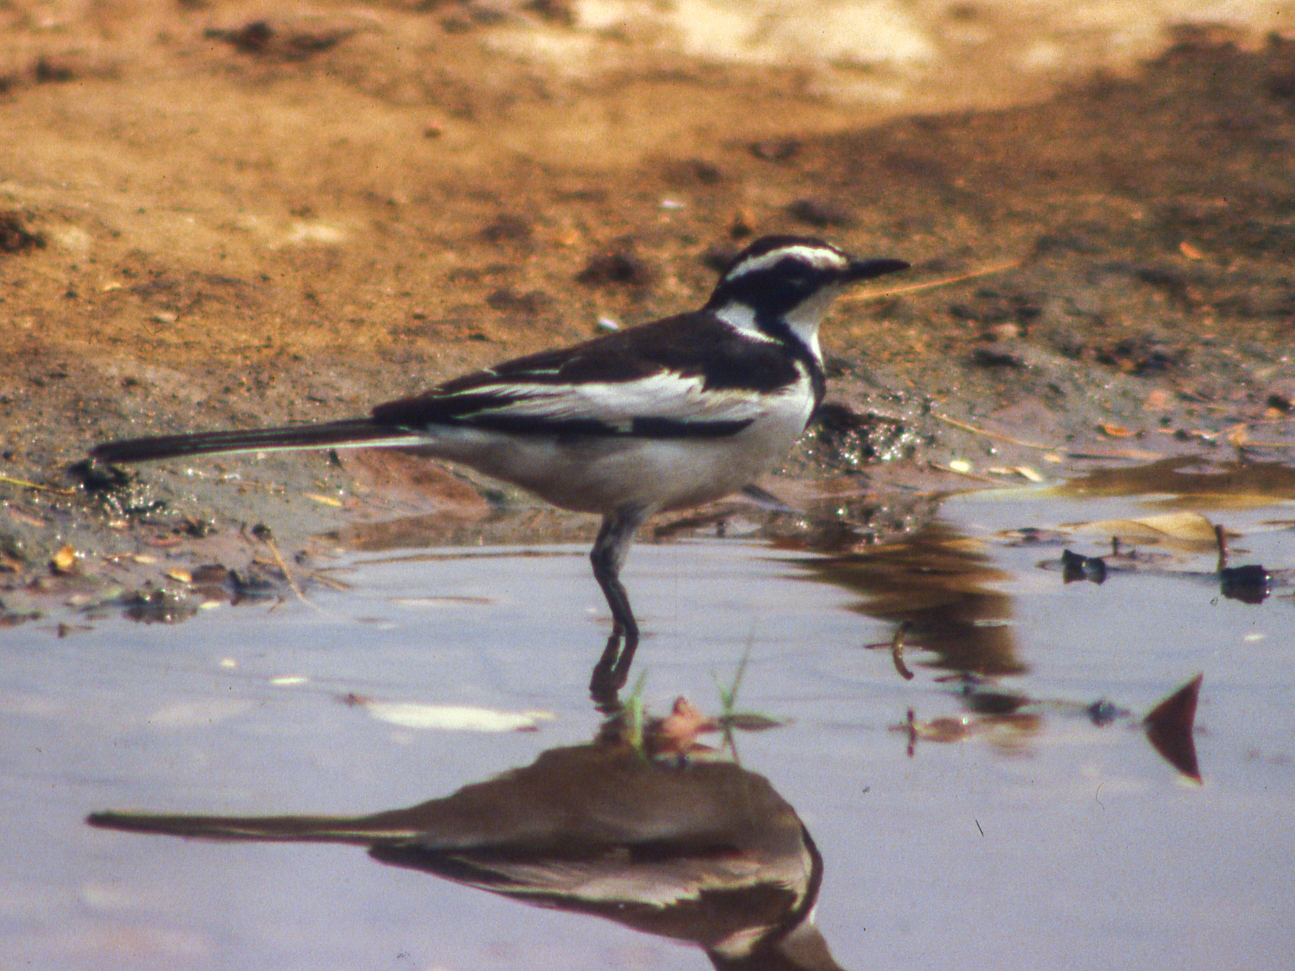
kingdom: Animalia
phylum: Chordata
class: Aves
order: Passeriformes
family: Motacillidae
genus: Motacilla
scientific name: Motacilla aguimp
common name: African pied wagtail
